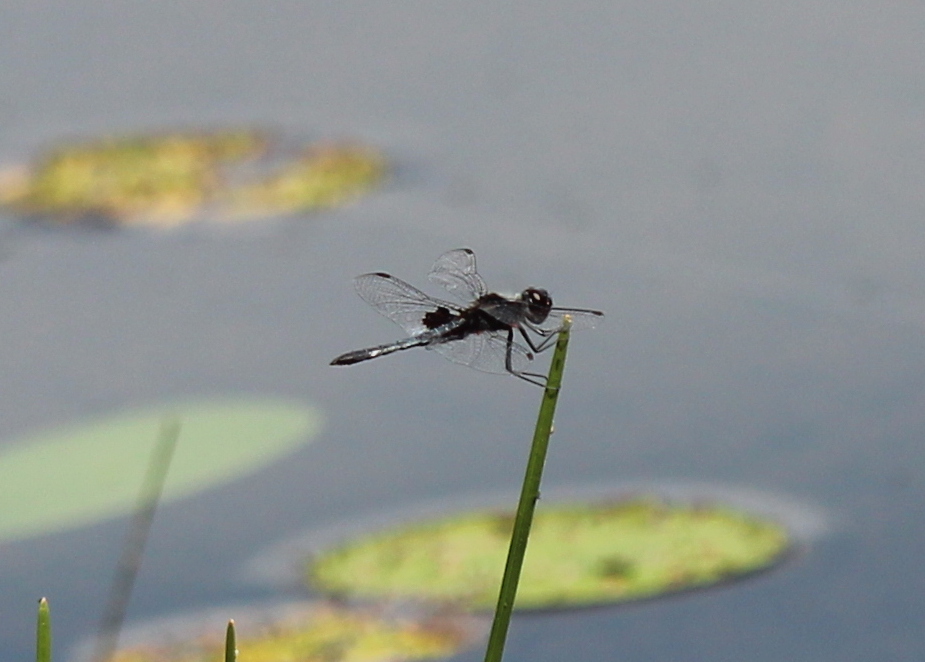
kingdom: Animalia
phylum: Arthropoda
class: Insecta
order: Odonata
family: Libellulidae
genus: Celithemis
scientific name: Celithemis martha
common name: Martha's pennant
